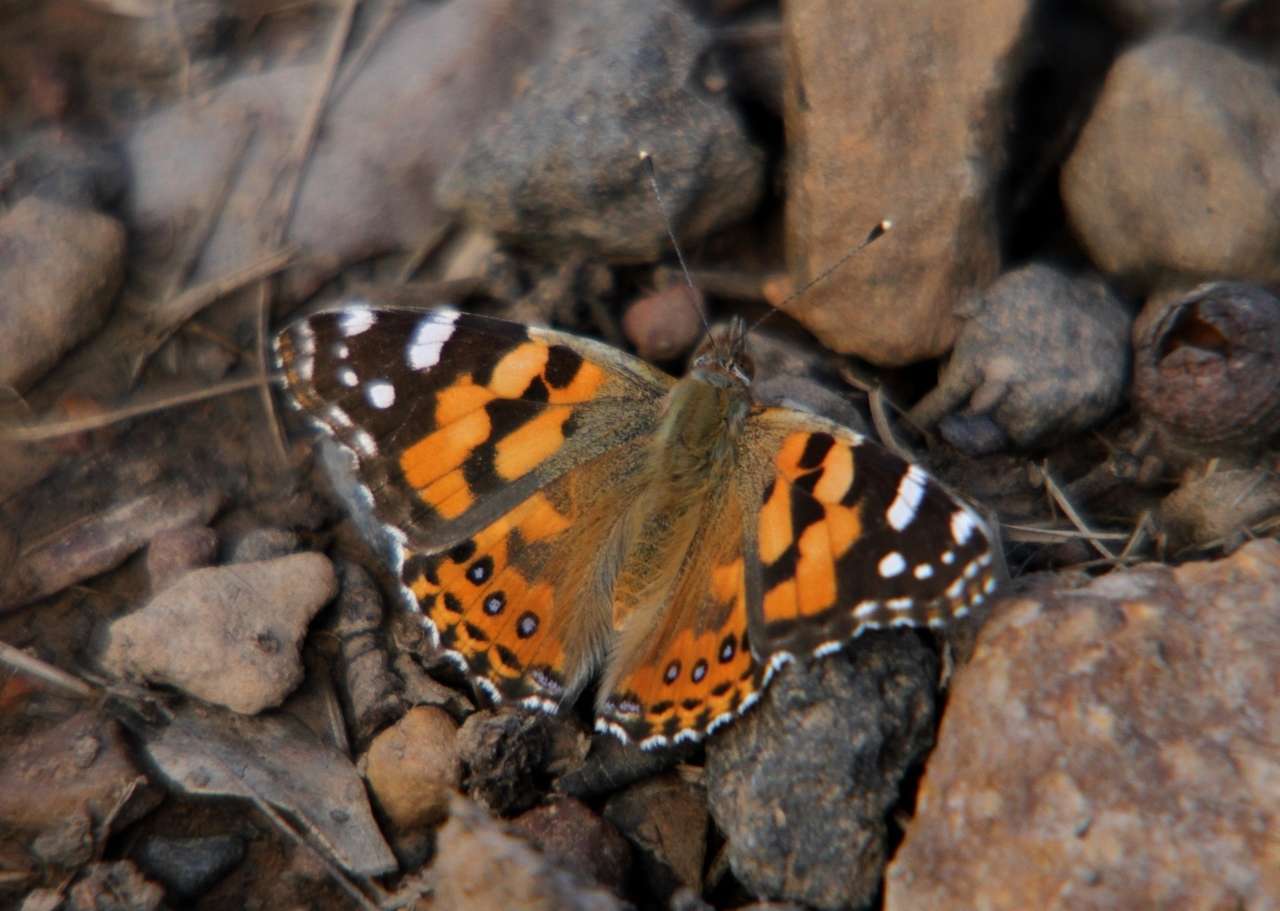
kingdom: Animalia
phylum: Arthropoda
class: Insecta
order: Lepidoptera
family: Nymphalidae
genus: Vanessa
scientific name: Vanessa kershawi
